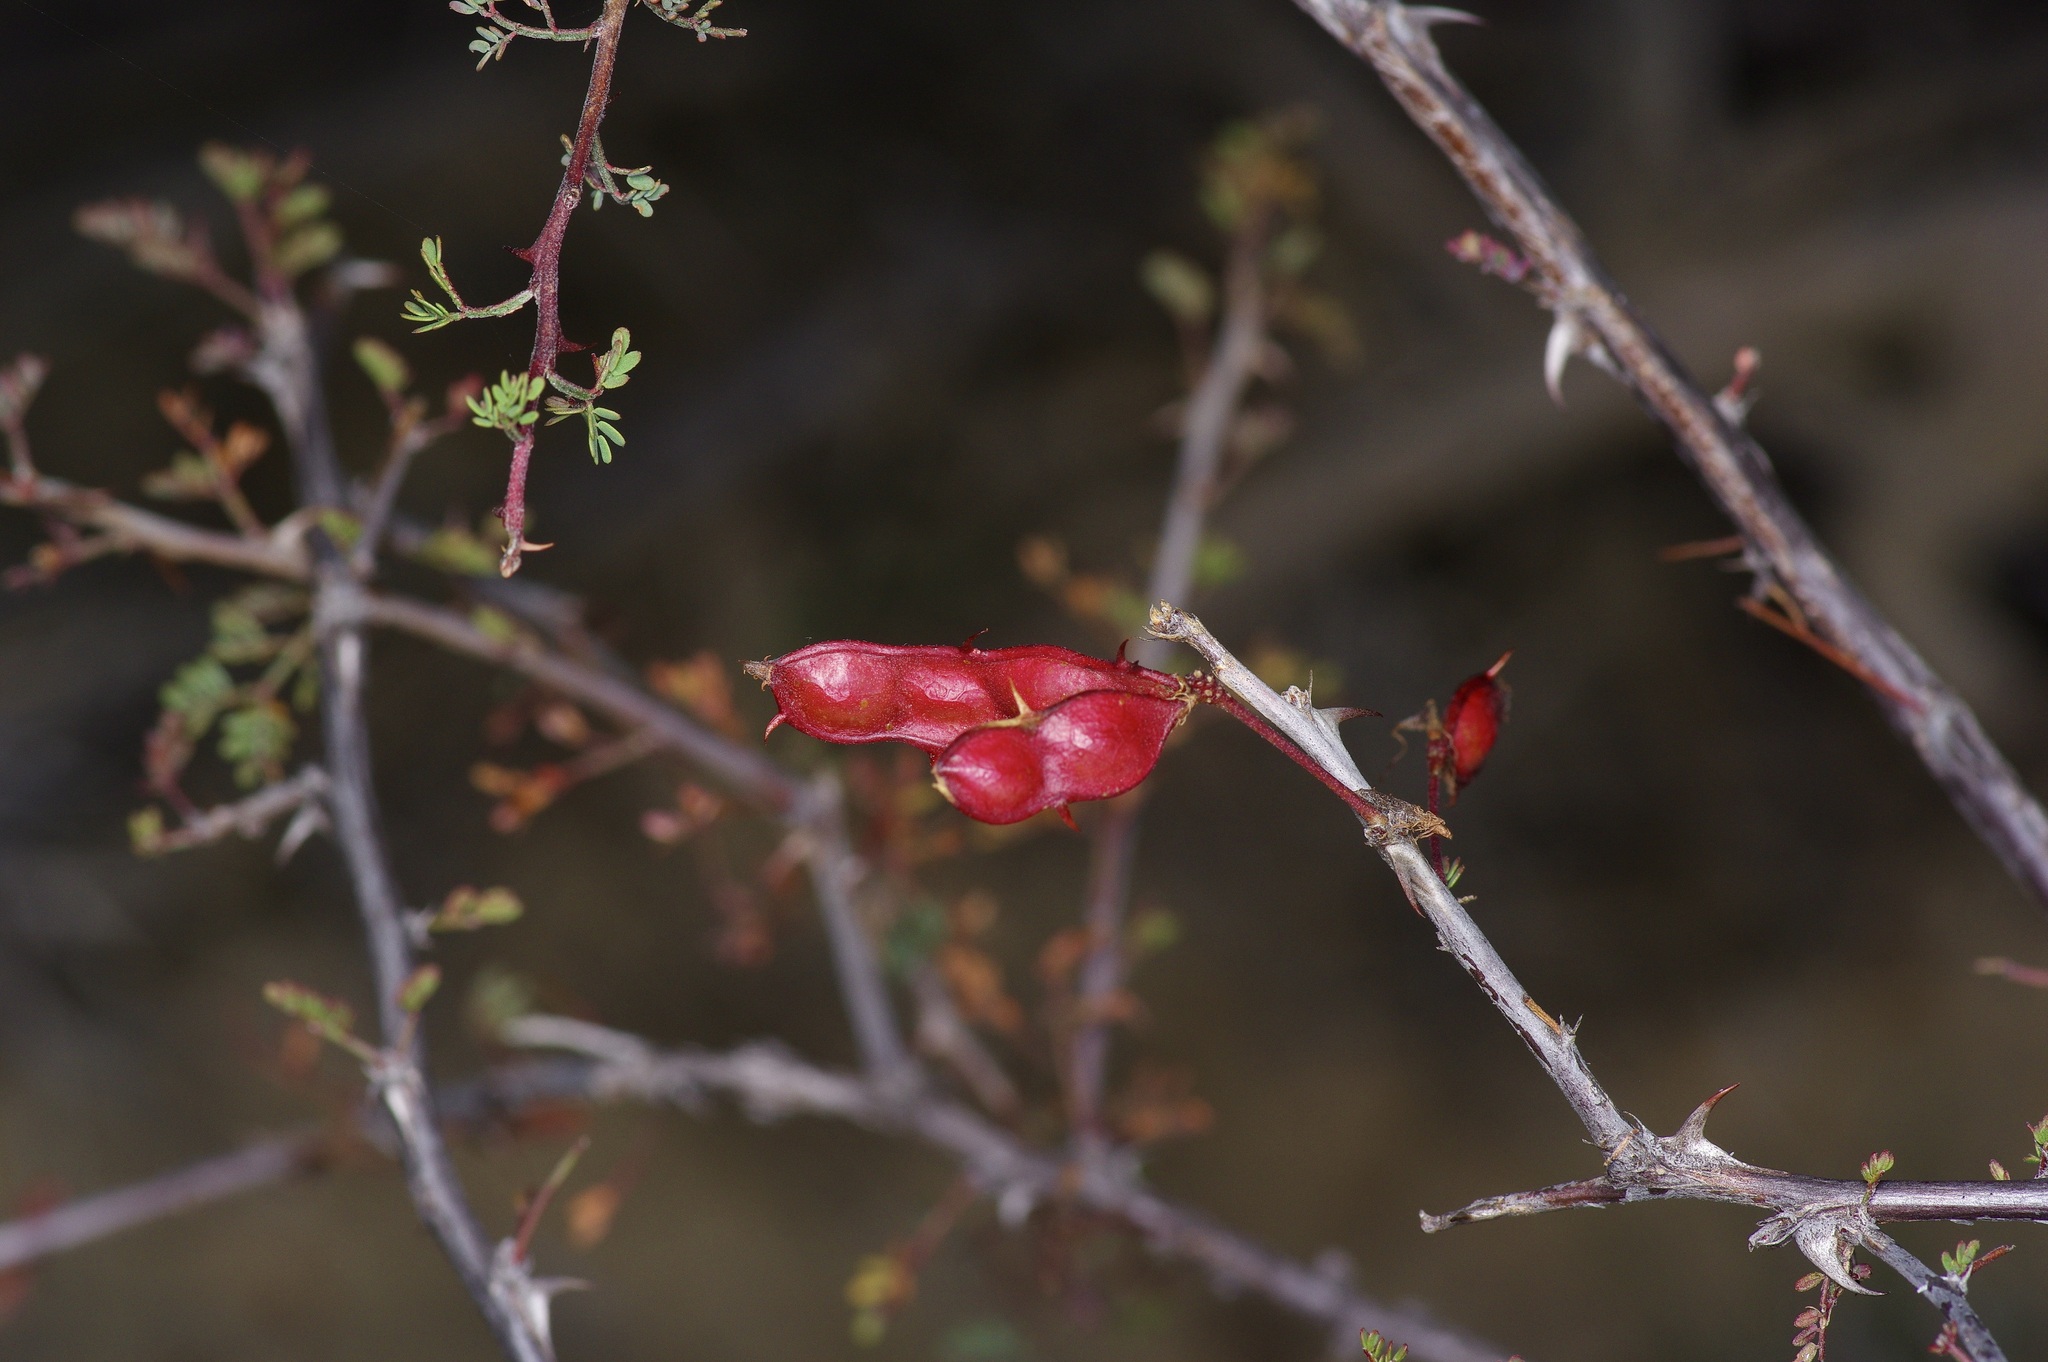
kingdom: Plantae
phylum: Tracheophyta
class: Magnoliopsida
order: Fabales
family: Fabaceae
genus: Mimosa
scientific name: Mimosa texana
